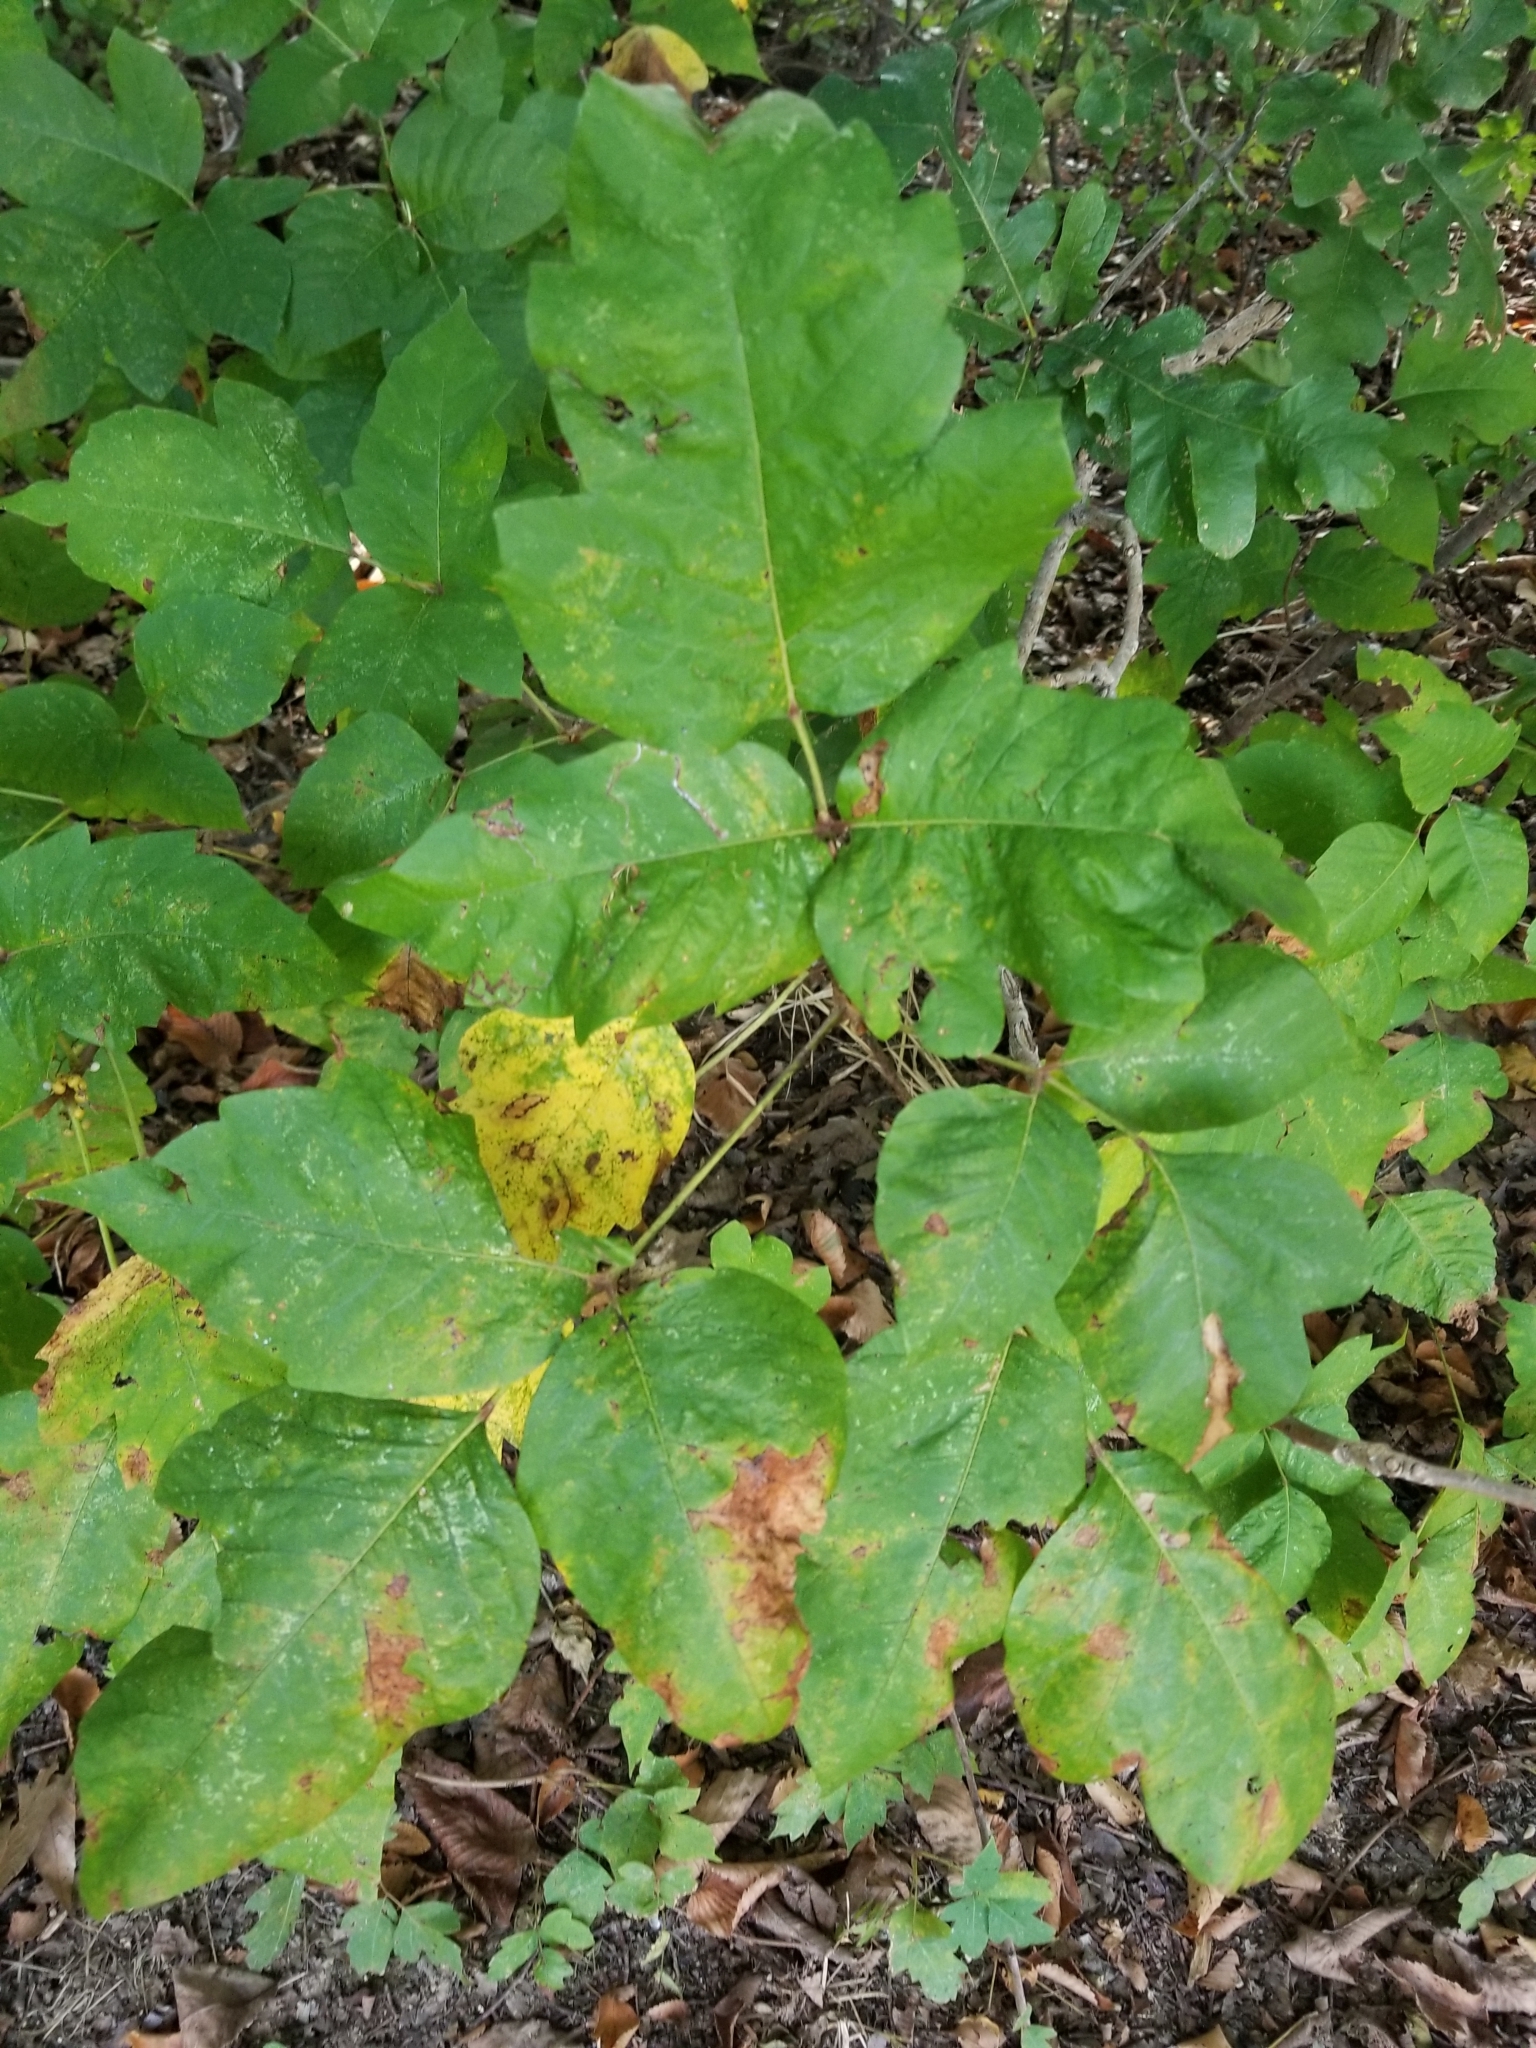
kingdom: Plantae
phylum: Tracheophyta
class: Magnoliopsida
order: Sapindales
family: Anacardiaceae
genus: Toxicodendron
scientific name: Toxicodendron radicans
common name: Poison ivy
